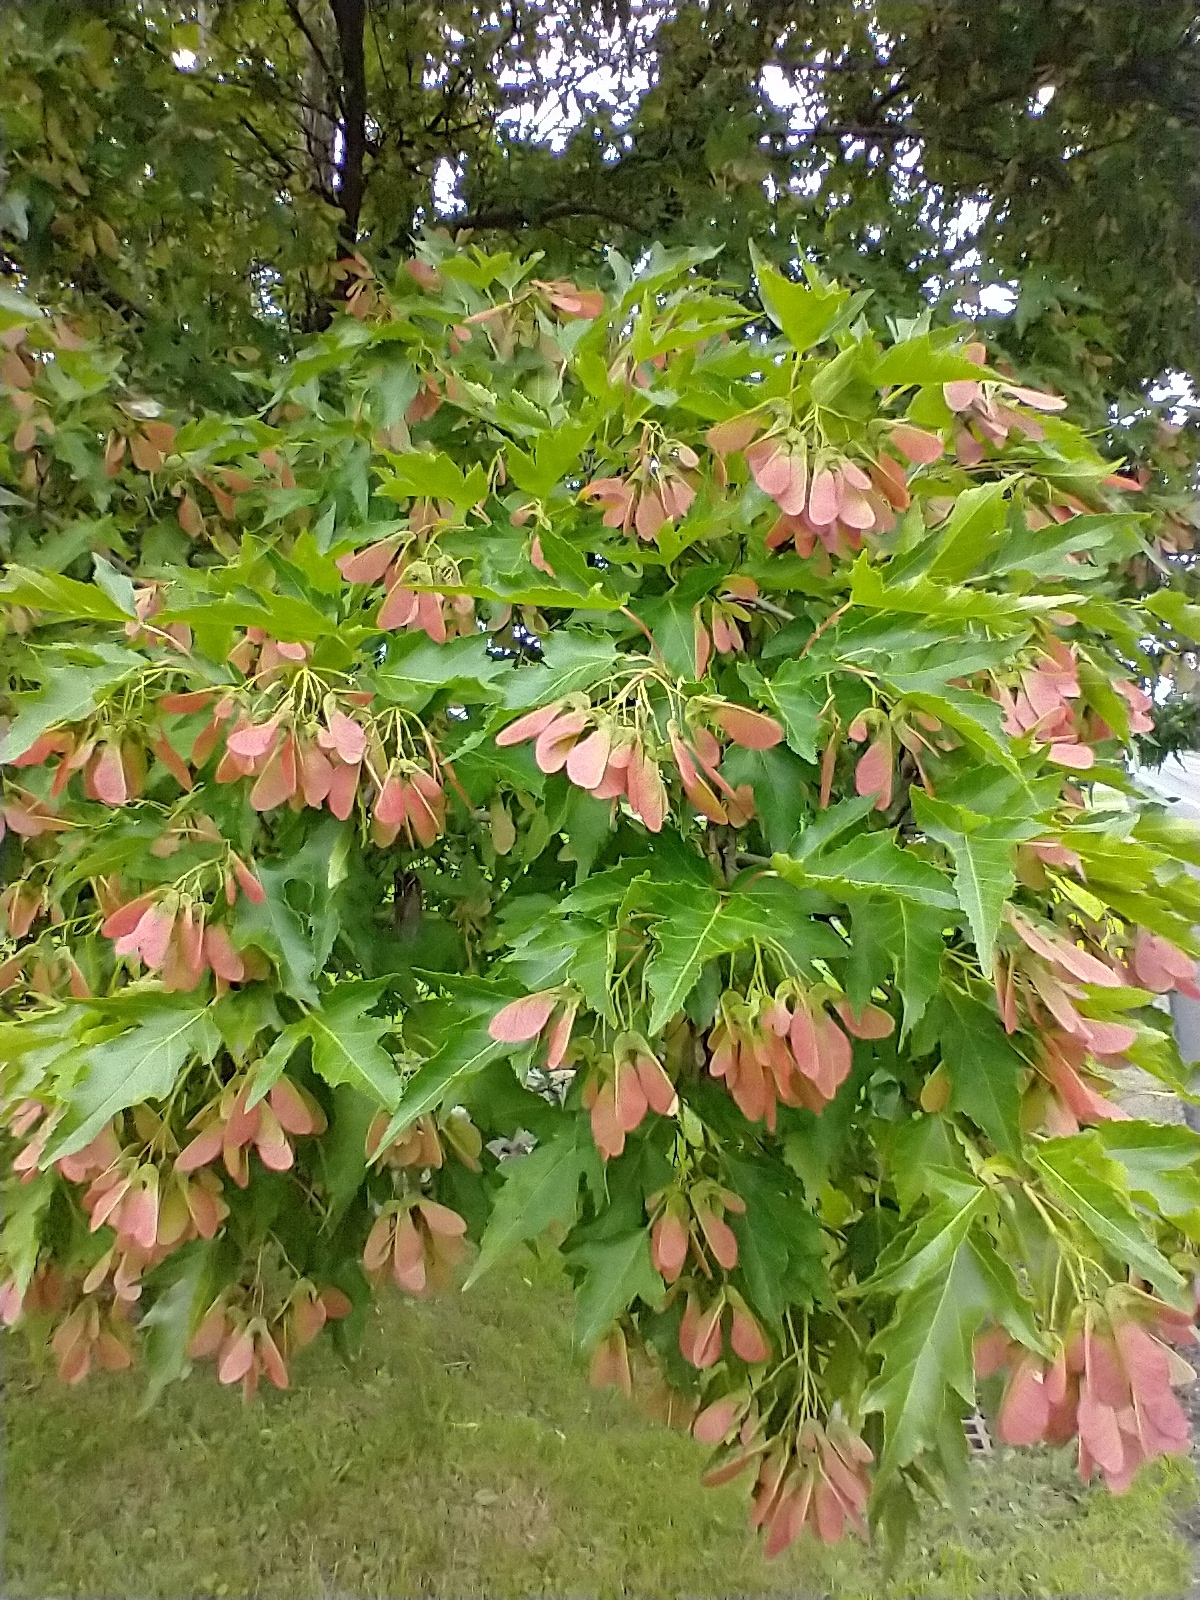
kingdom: Plantae
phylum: Tracheophyta
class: Magnoliopsida
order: Sapindales
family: Sapindaceae
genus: Acer
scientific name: Acer tataricum
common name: Tartar maple
